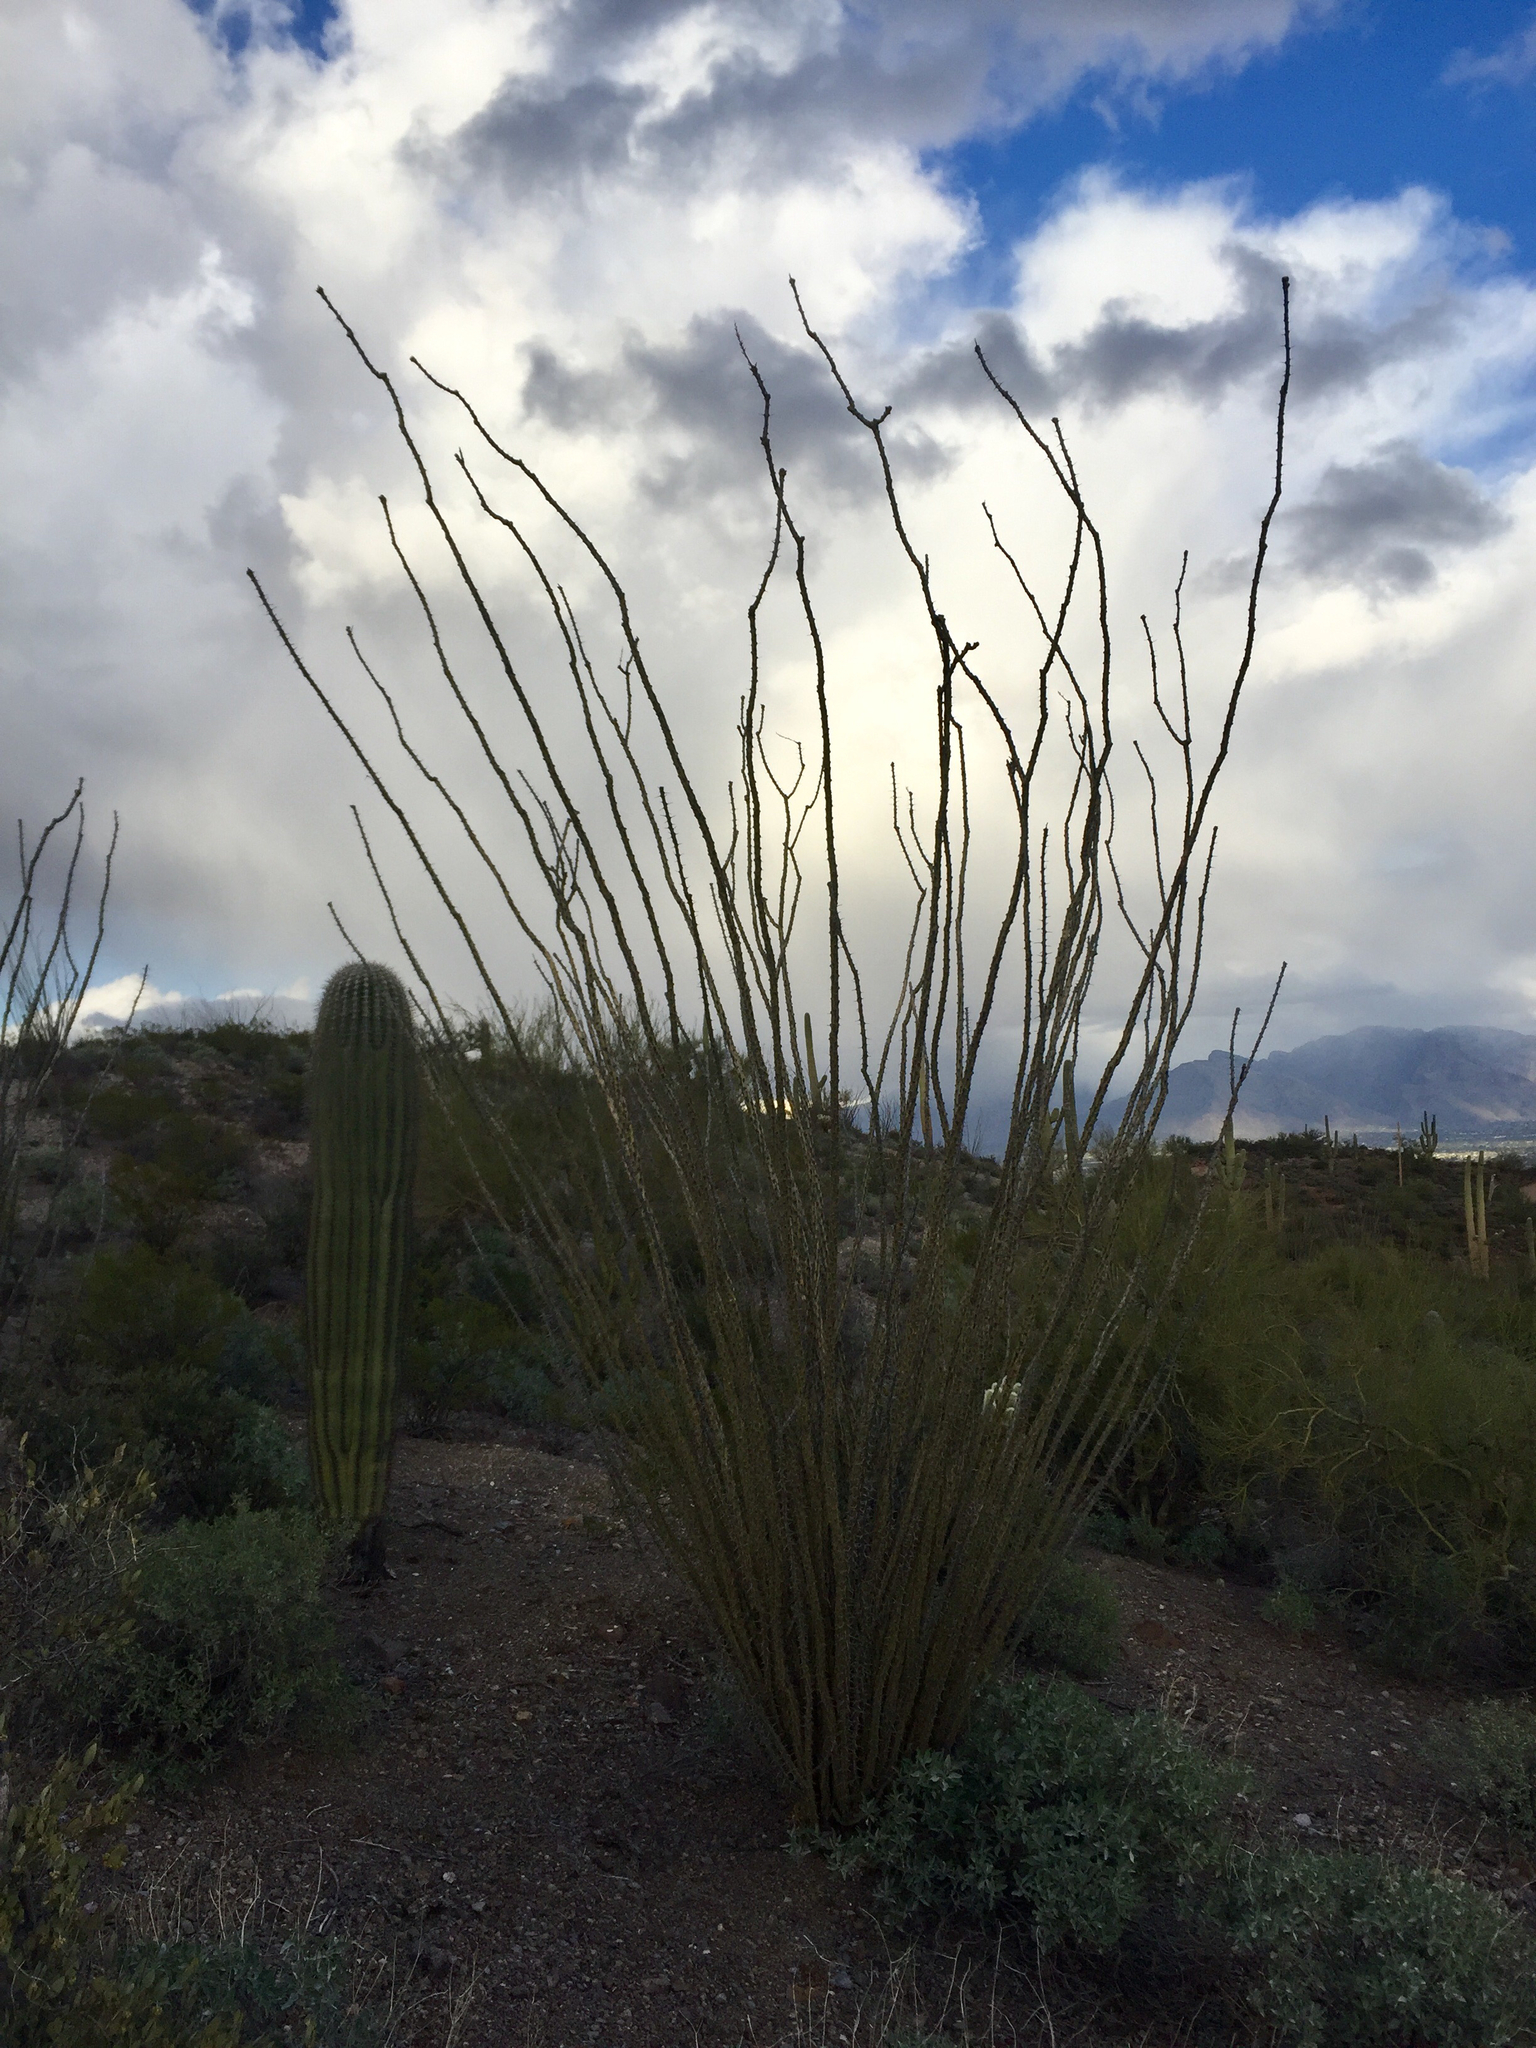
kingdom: Plantae
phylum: Tracheophyta
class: Magnoliopsida
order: Ericales
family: Fouquieriaceae
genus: Fouquieria
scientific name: Fouquieria splendens
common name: Vine-cactus
